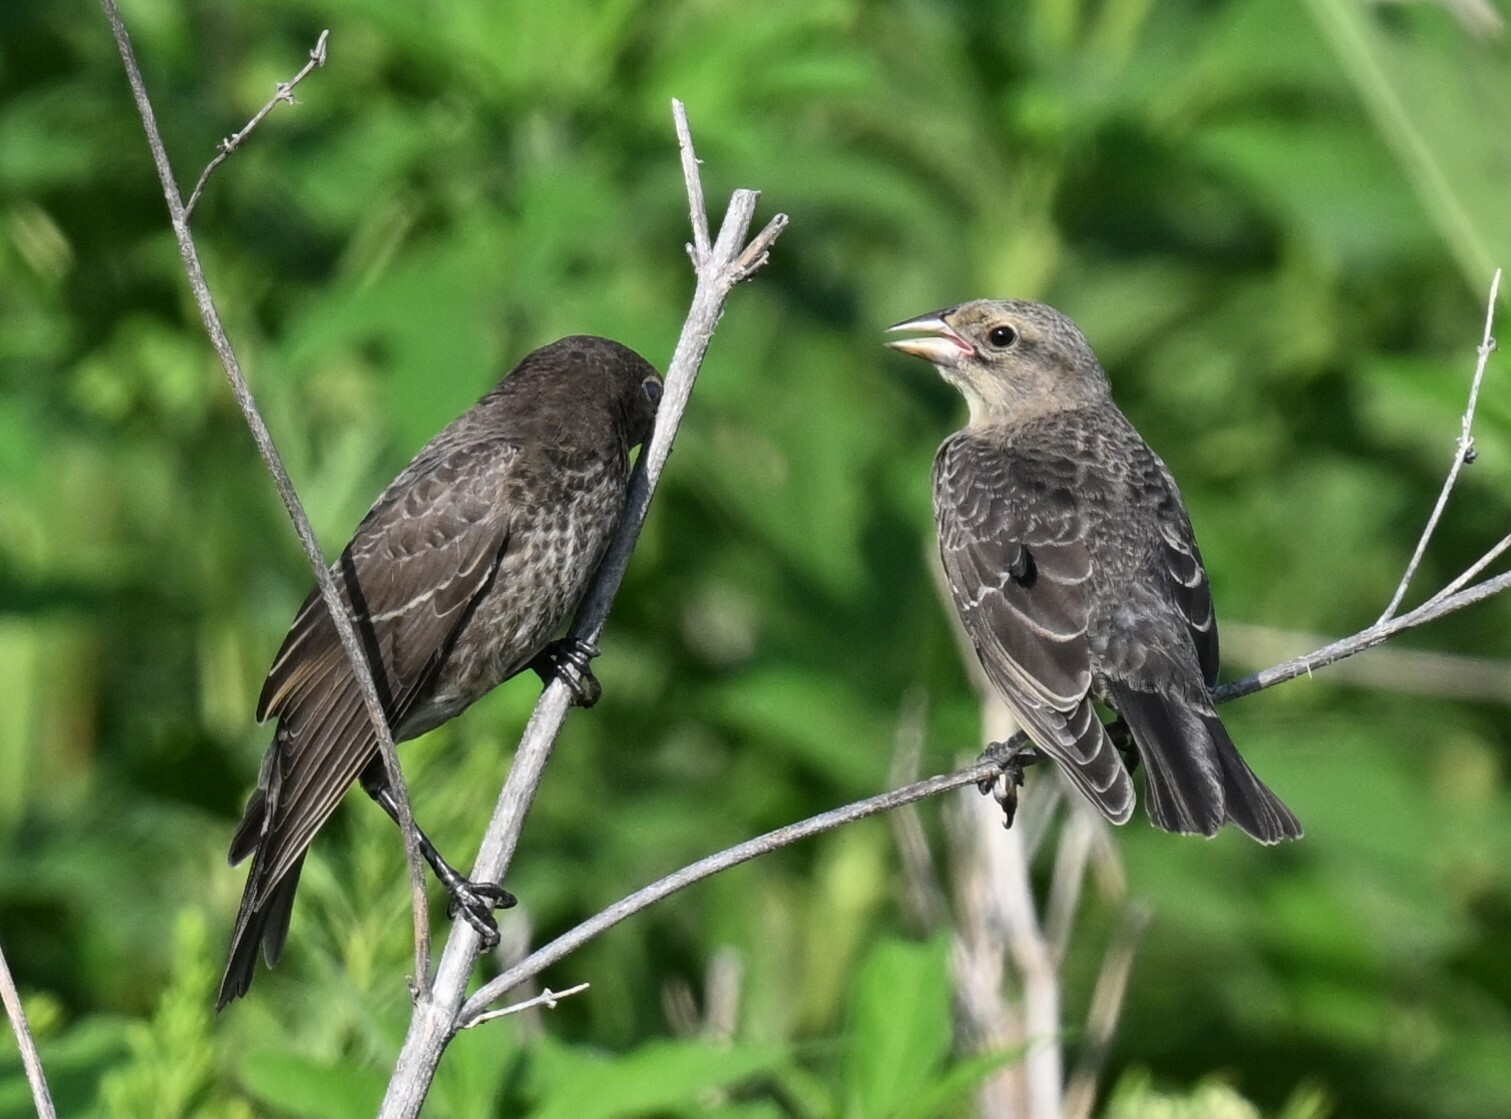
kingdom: Animalia
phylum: Chordata
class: Aves
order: Passeriformes
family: Icteridae
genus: Molothrus
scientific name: Molothrus ater
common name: Brown-headed cowbird
